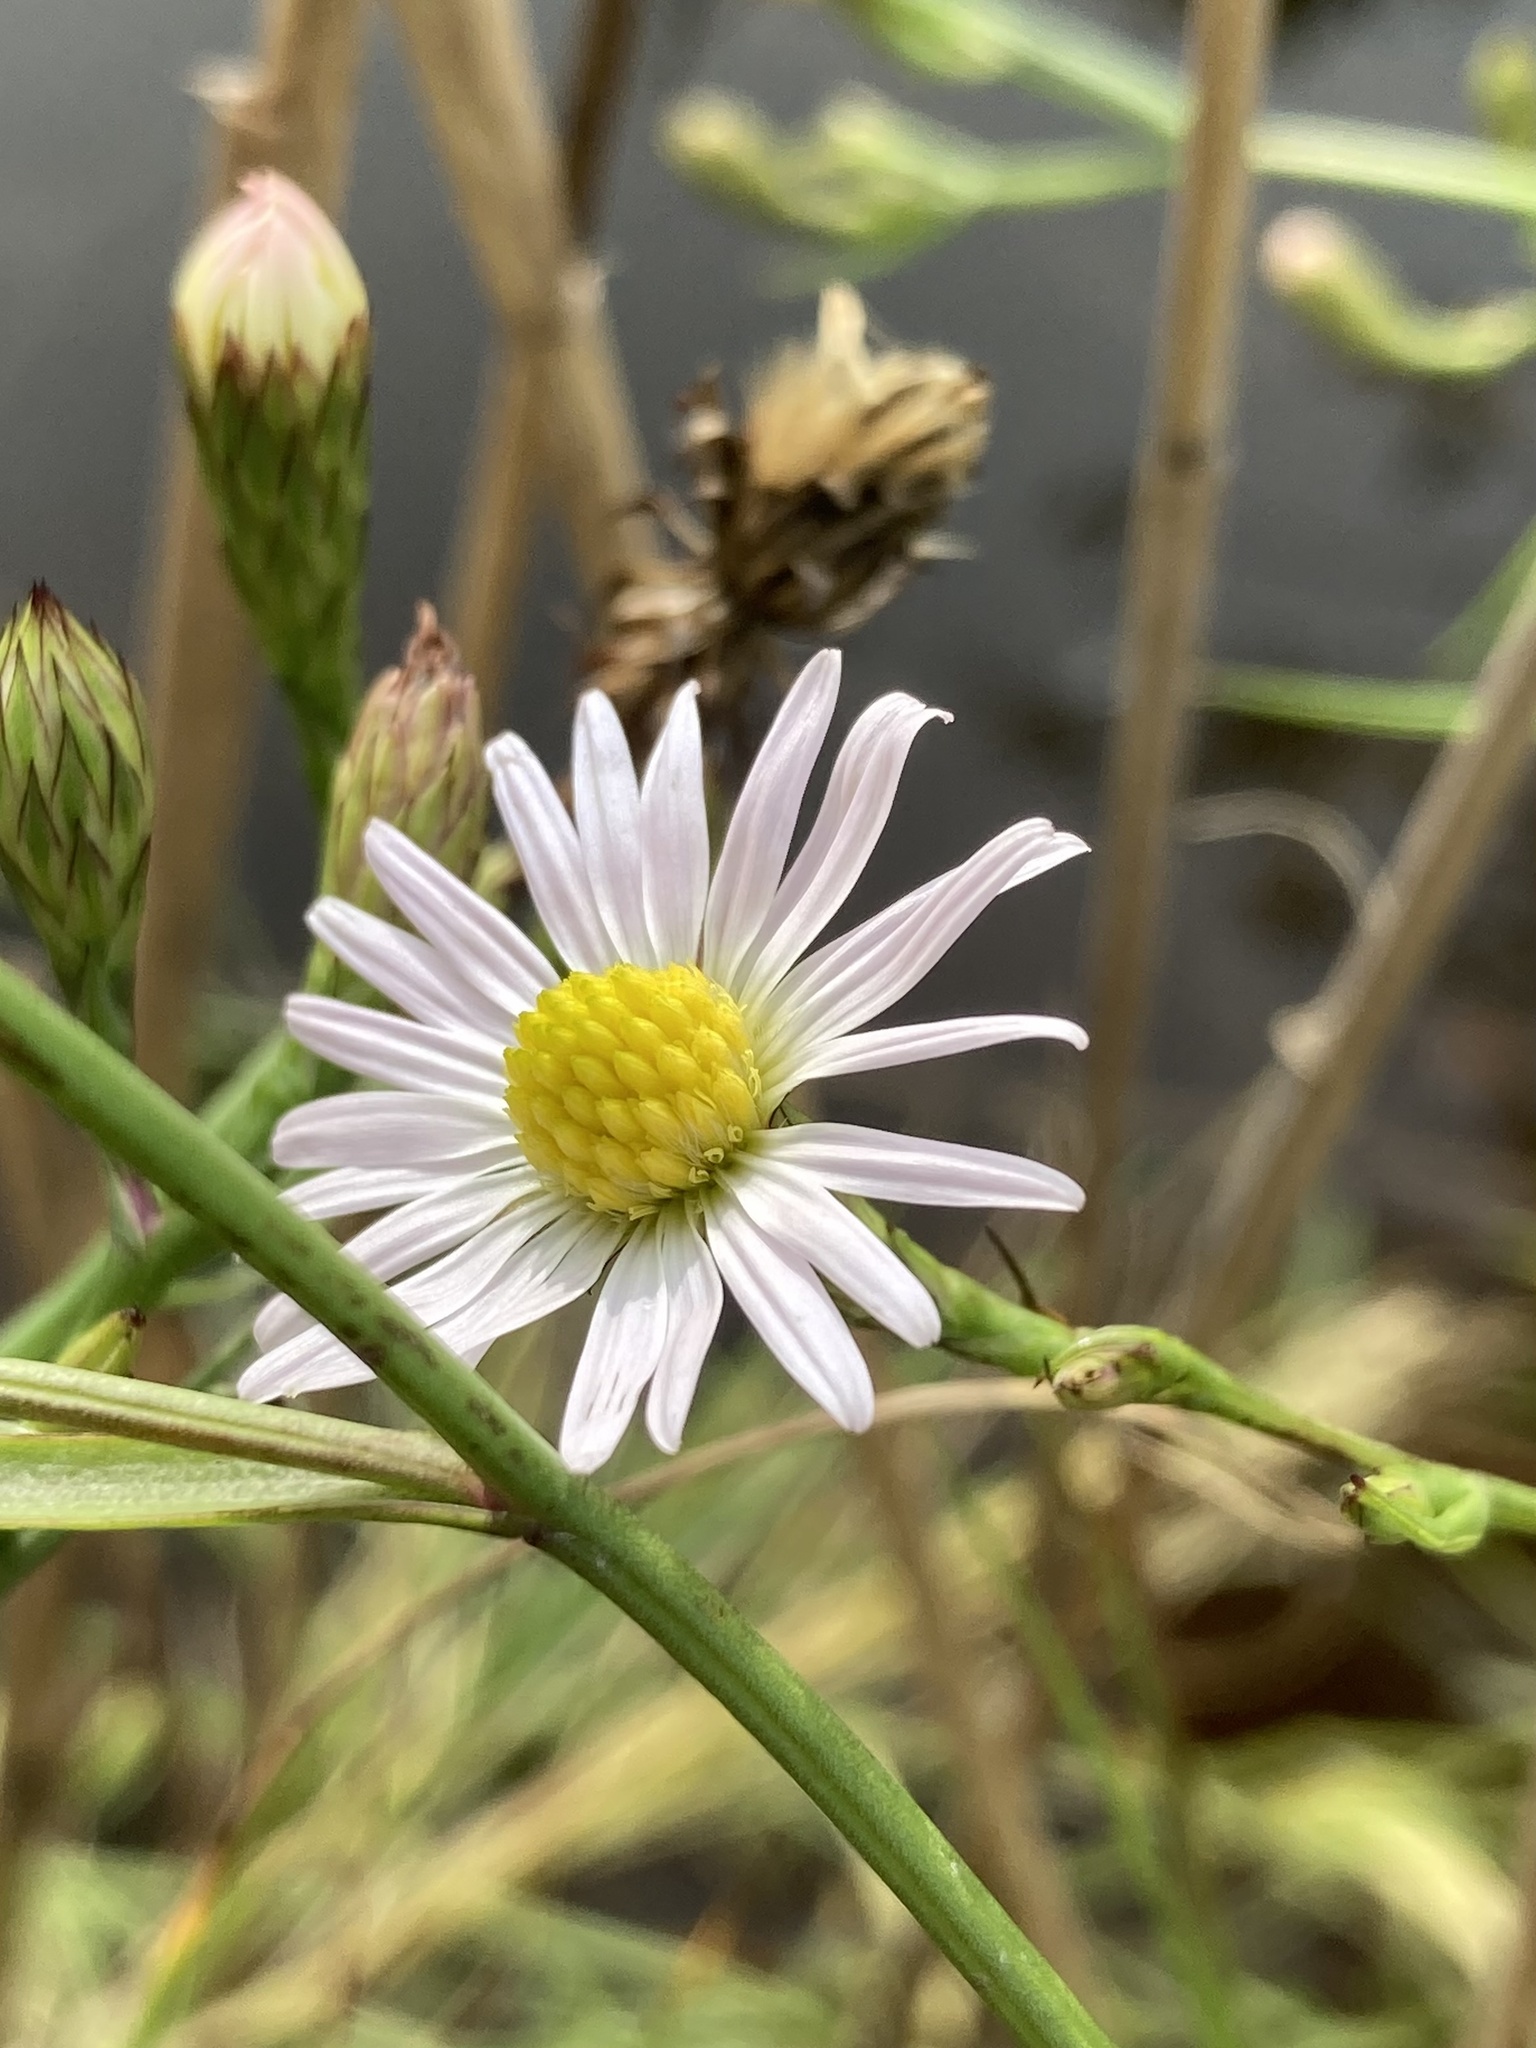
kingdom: Plantae
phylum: Tracheophyta
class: Magnoliopsida
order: Asterales
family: Asteraceae
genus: Symphyotrichum
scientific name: Symphyotrichum tenuifolium
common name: Perennial salt-marsh aster
